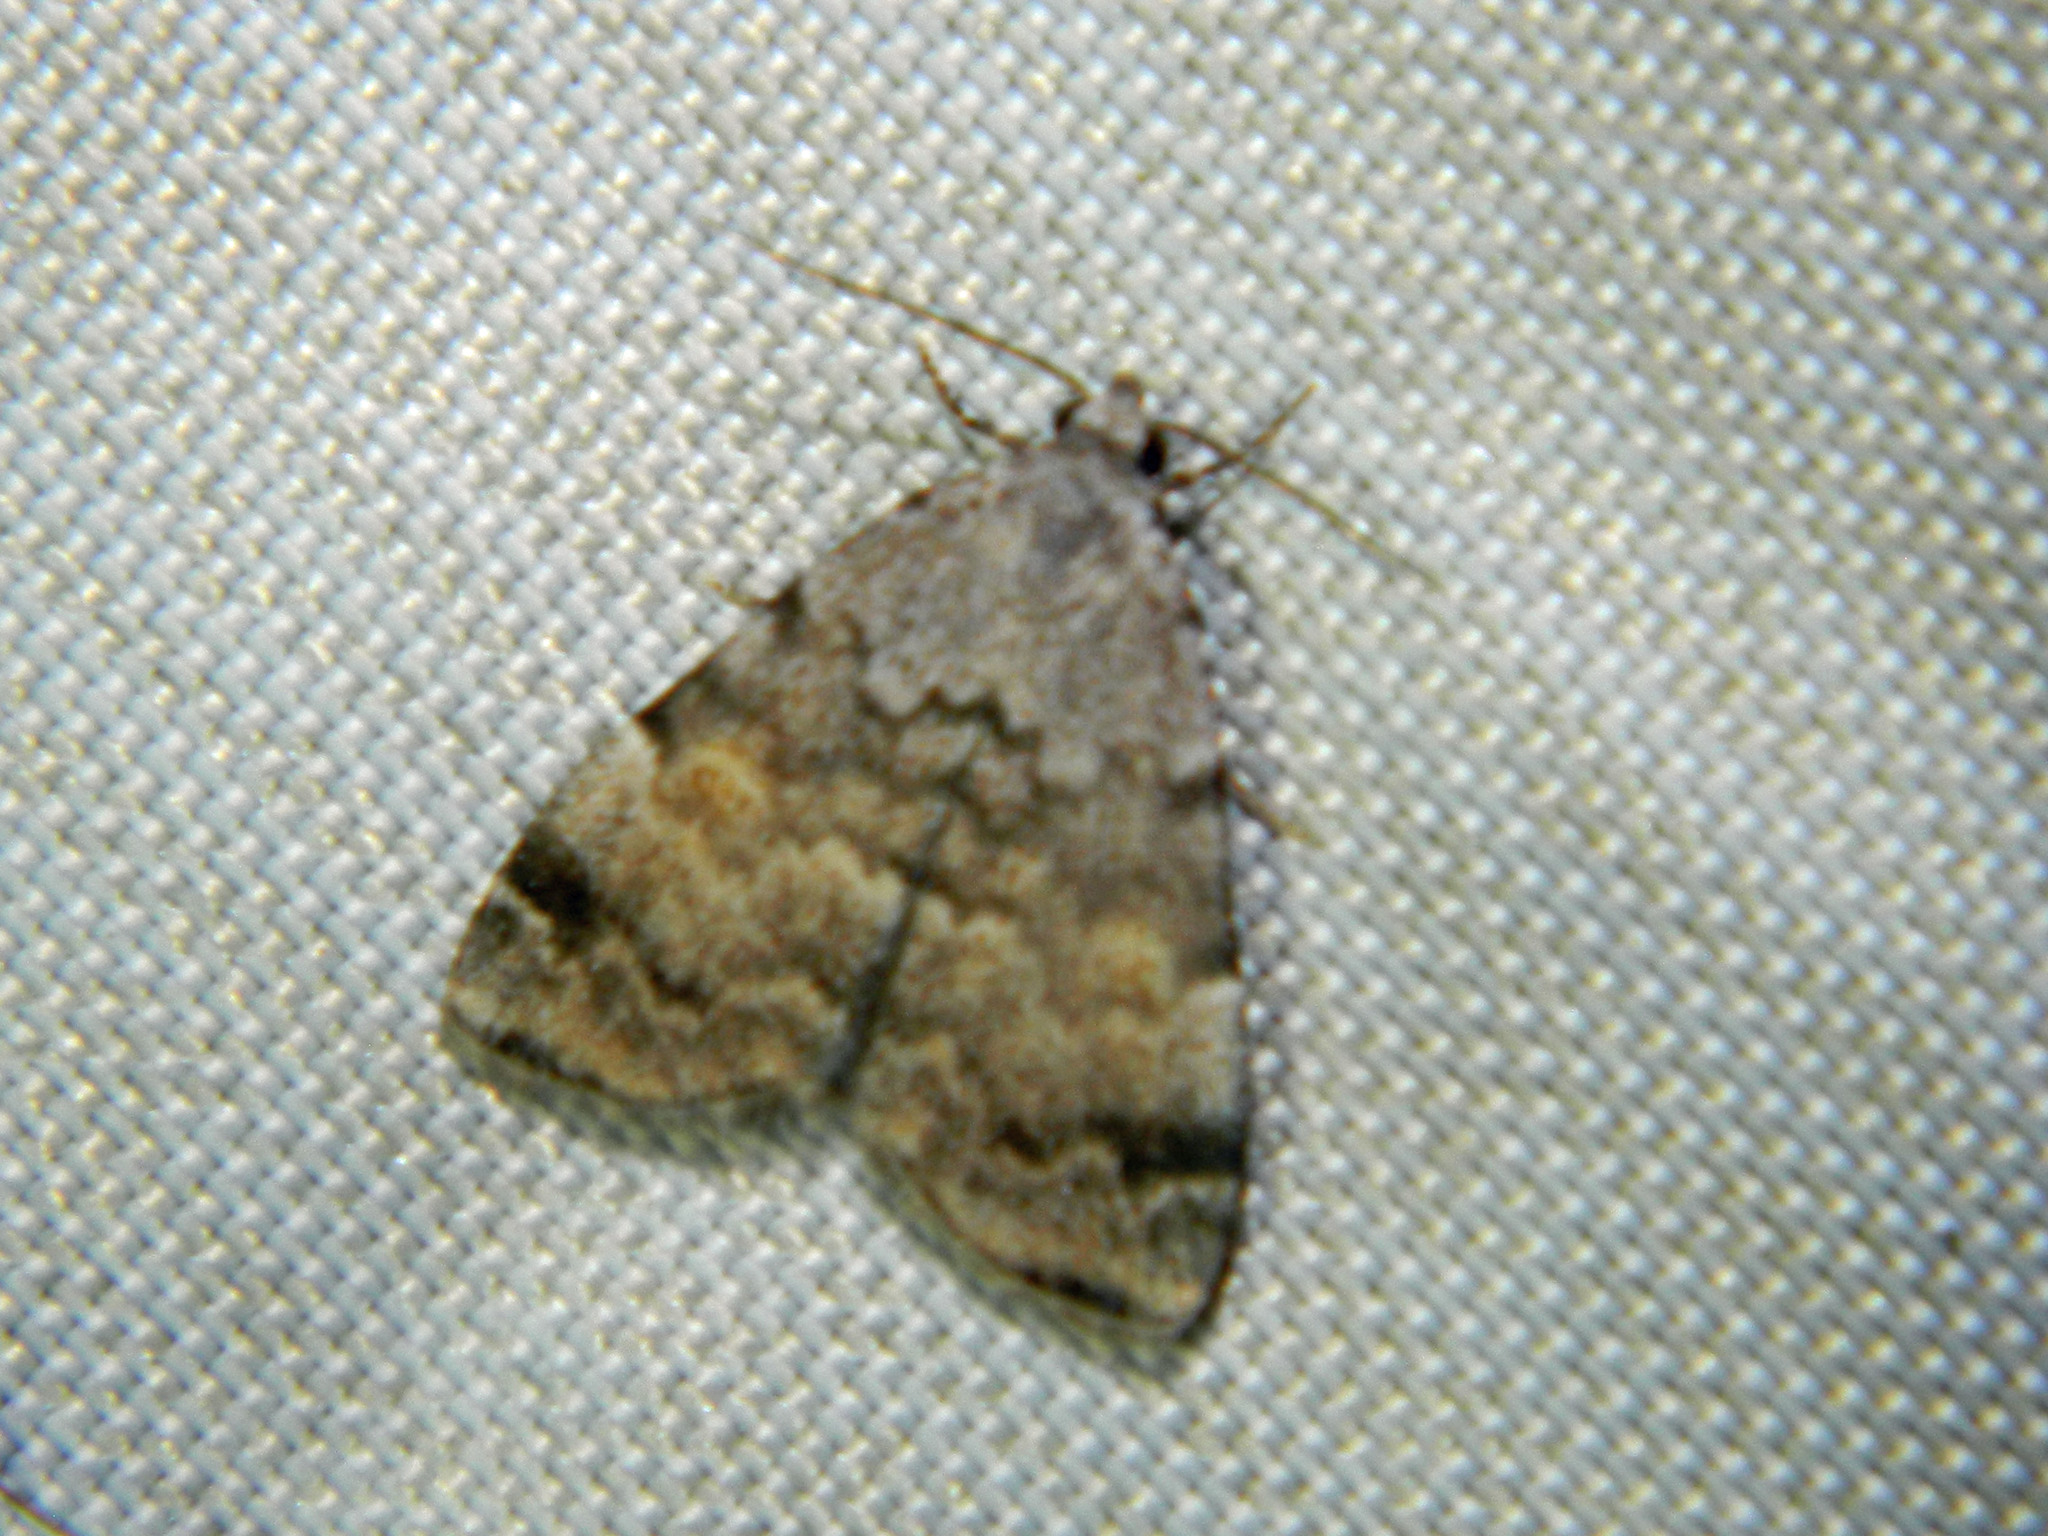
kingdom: Animalia
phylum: Arthropoda
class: Insecta
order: Lepidoptera
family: Erebidae
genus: Idia
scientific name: Idia americalis
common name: American idia moth
